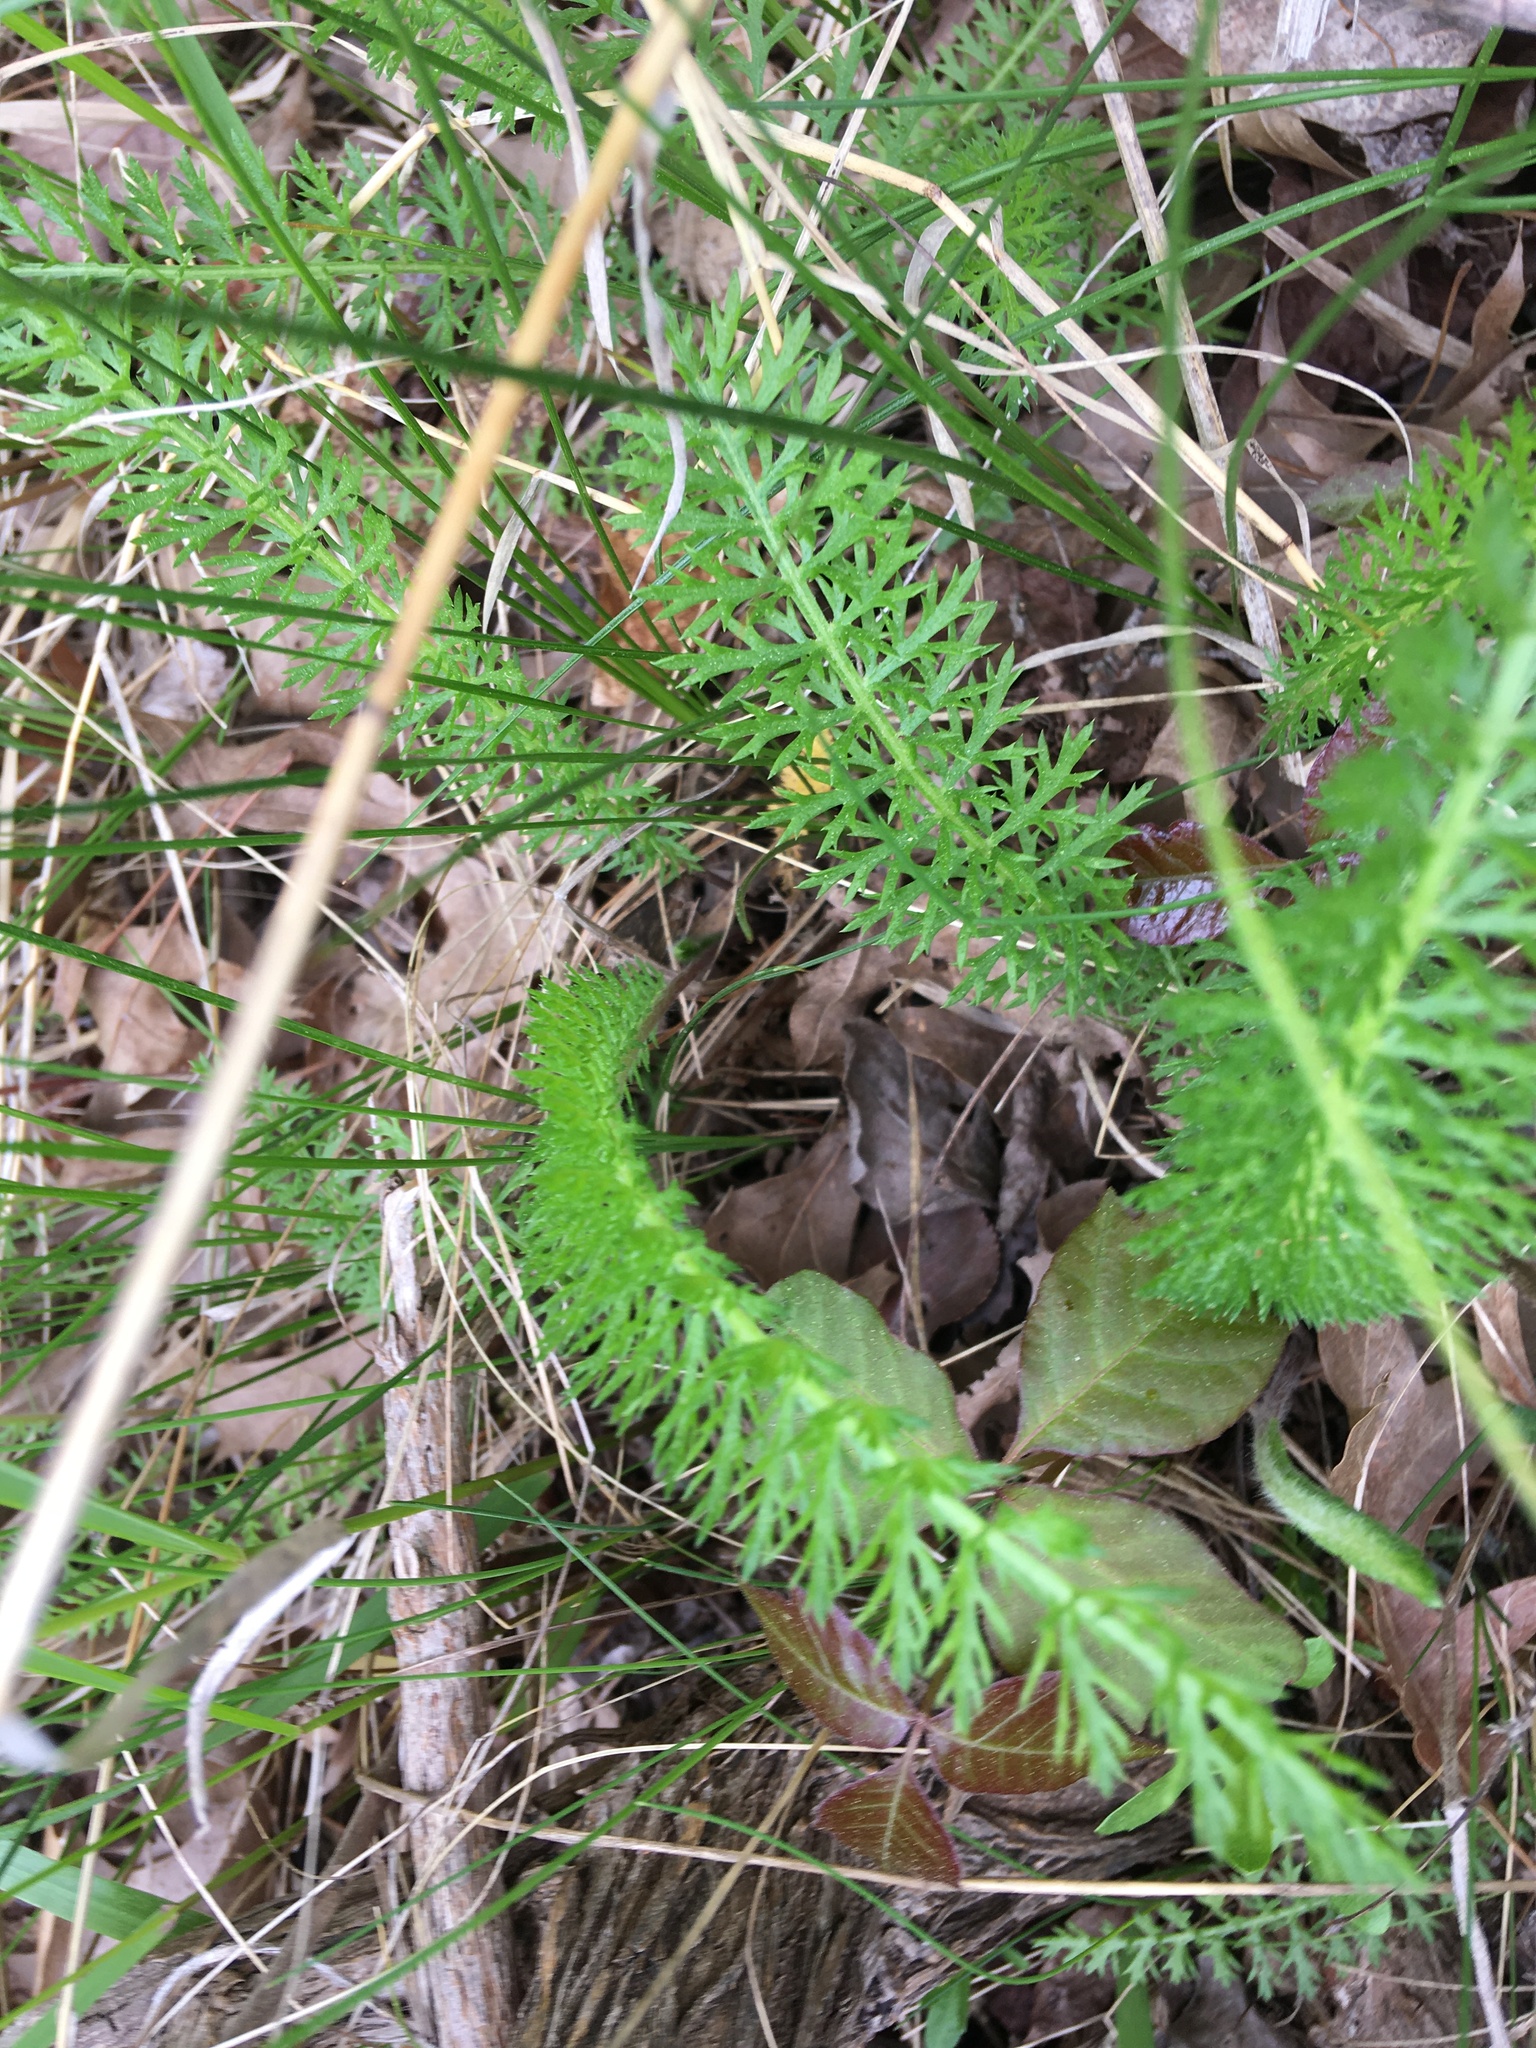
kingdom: Plantae
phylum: Tracheophyta
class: Magnoliopsida
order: Asterales
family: Asteraceae
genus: Achillea
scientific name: Achillea millefolium
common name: Yarrow
